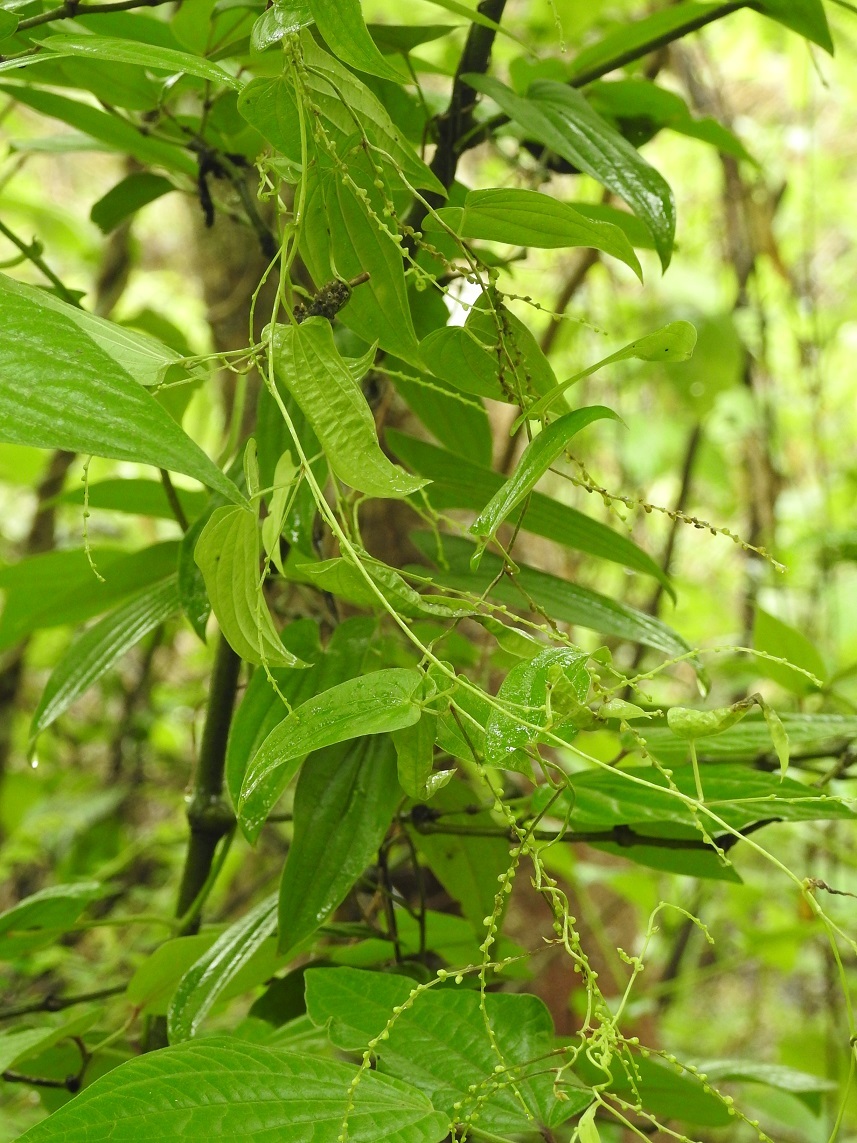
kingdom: Plantae
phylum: Tracheophyta
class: Liliopsida
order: Dioscoreales
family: Dioscoreaceae
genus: Dioscorea
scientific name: Dioscorea spiculiflora
